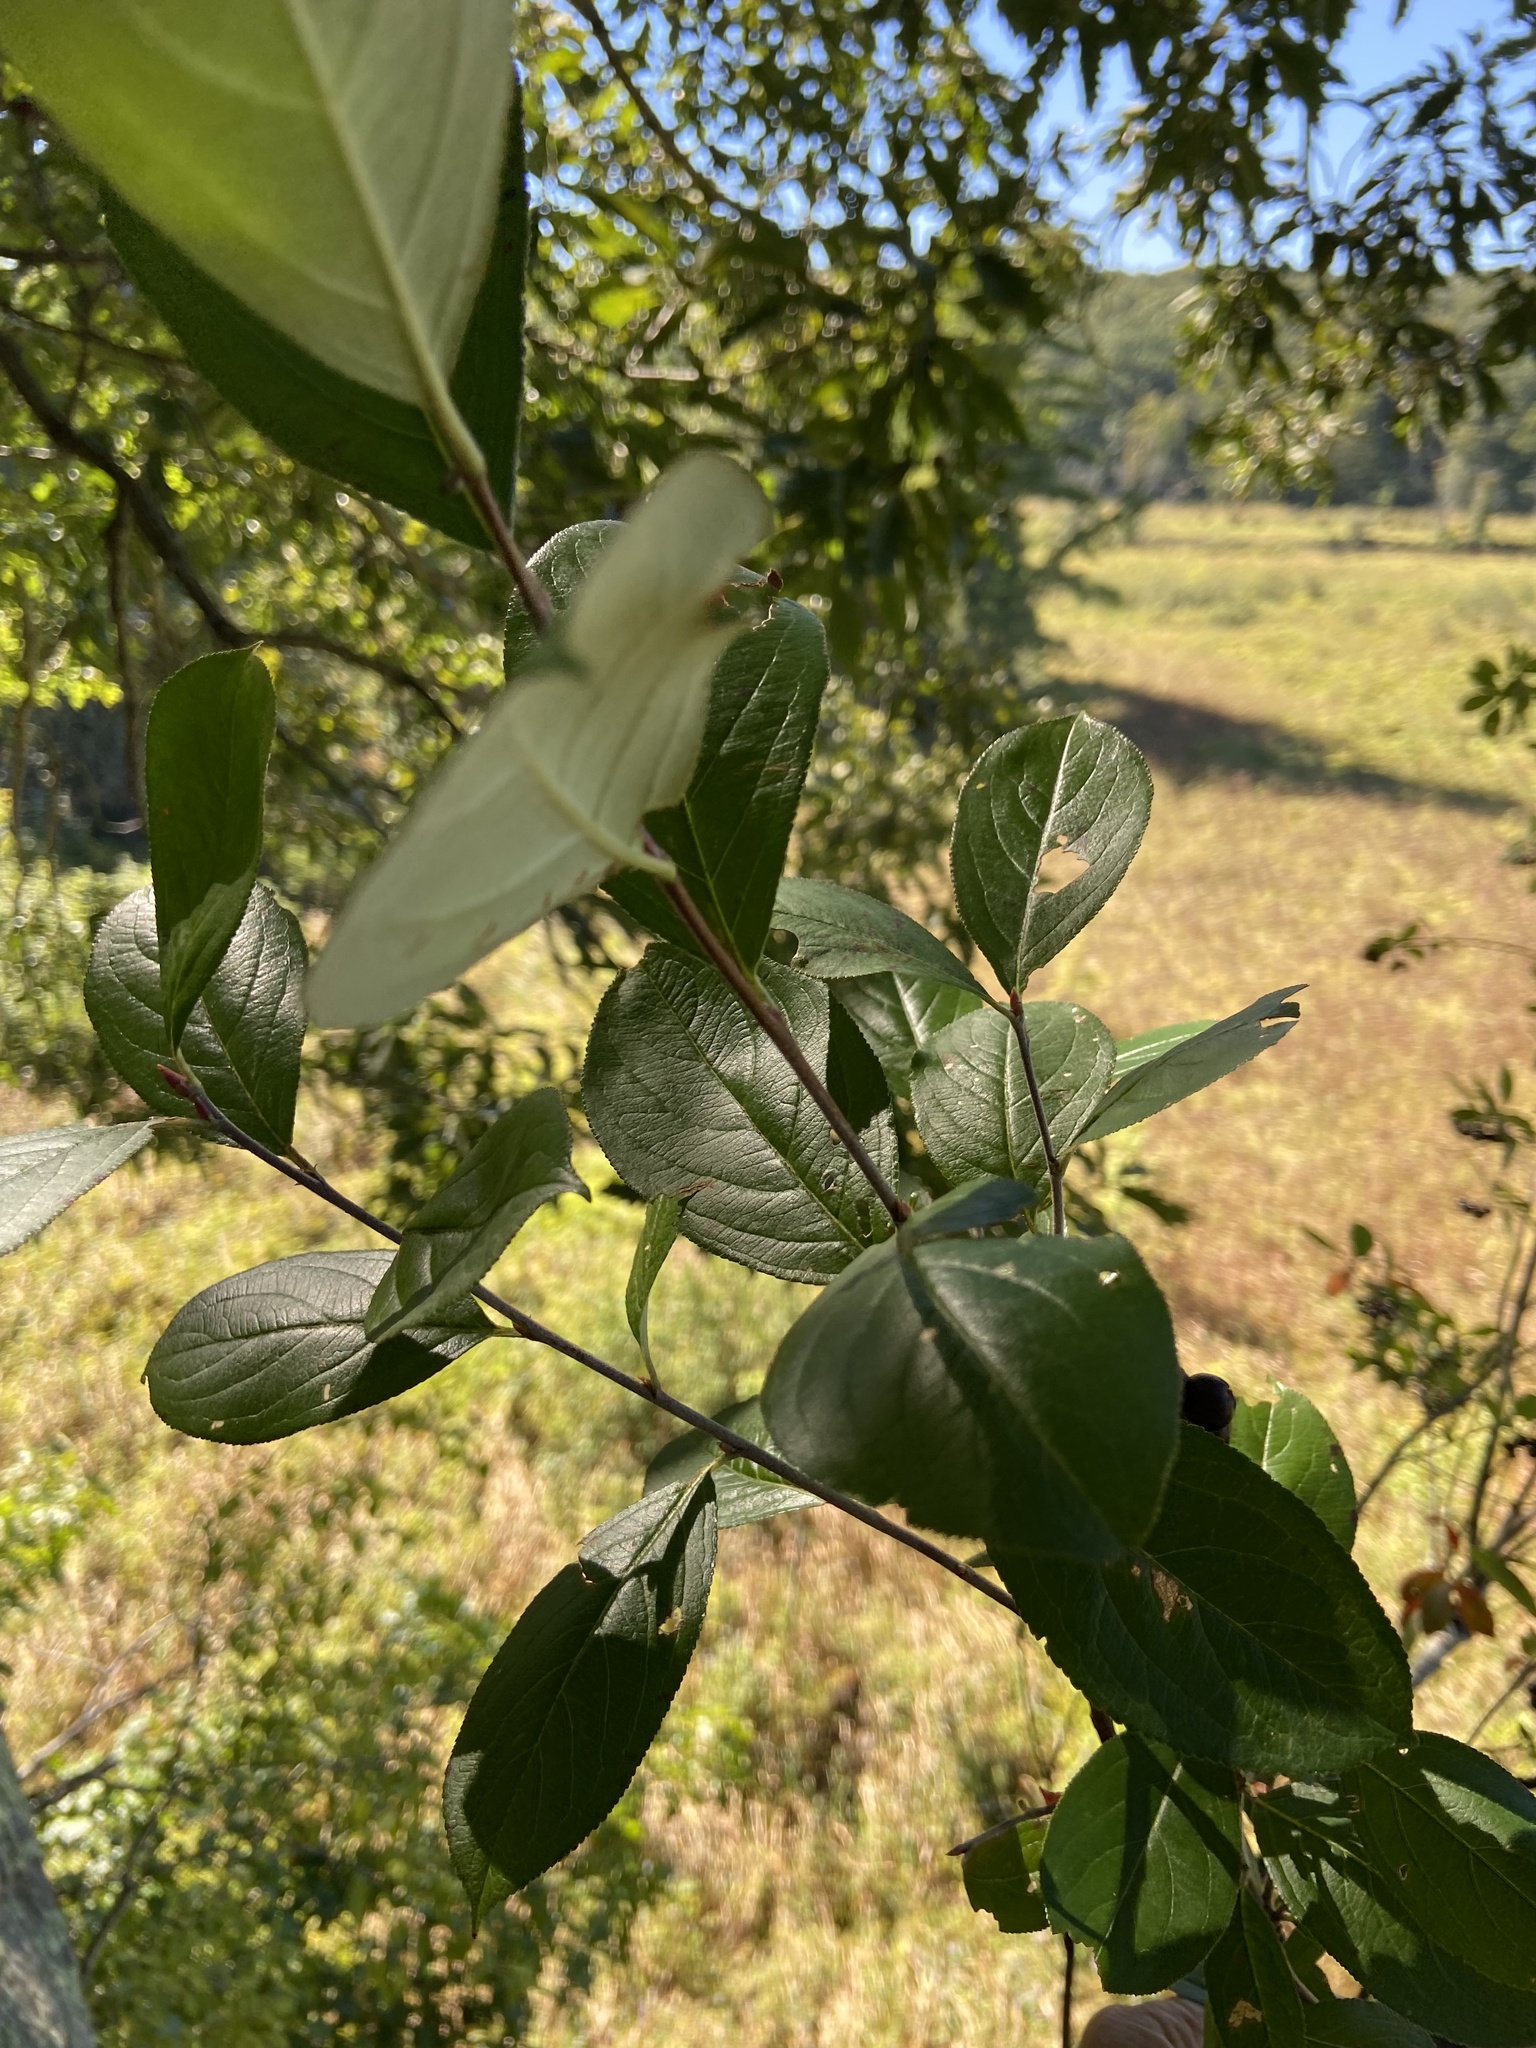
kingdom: Plantae
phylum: Tracheophyta
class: Magnoliopsida
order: Rosales
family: Rosaceae
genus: Aronia
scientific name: Aronia melanocarpa
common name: Black chokeberry
